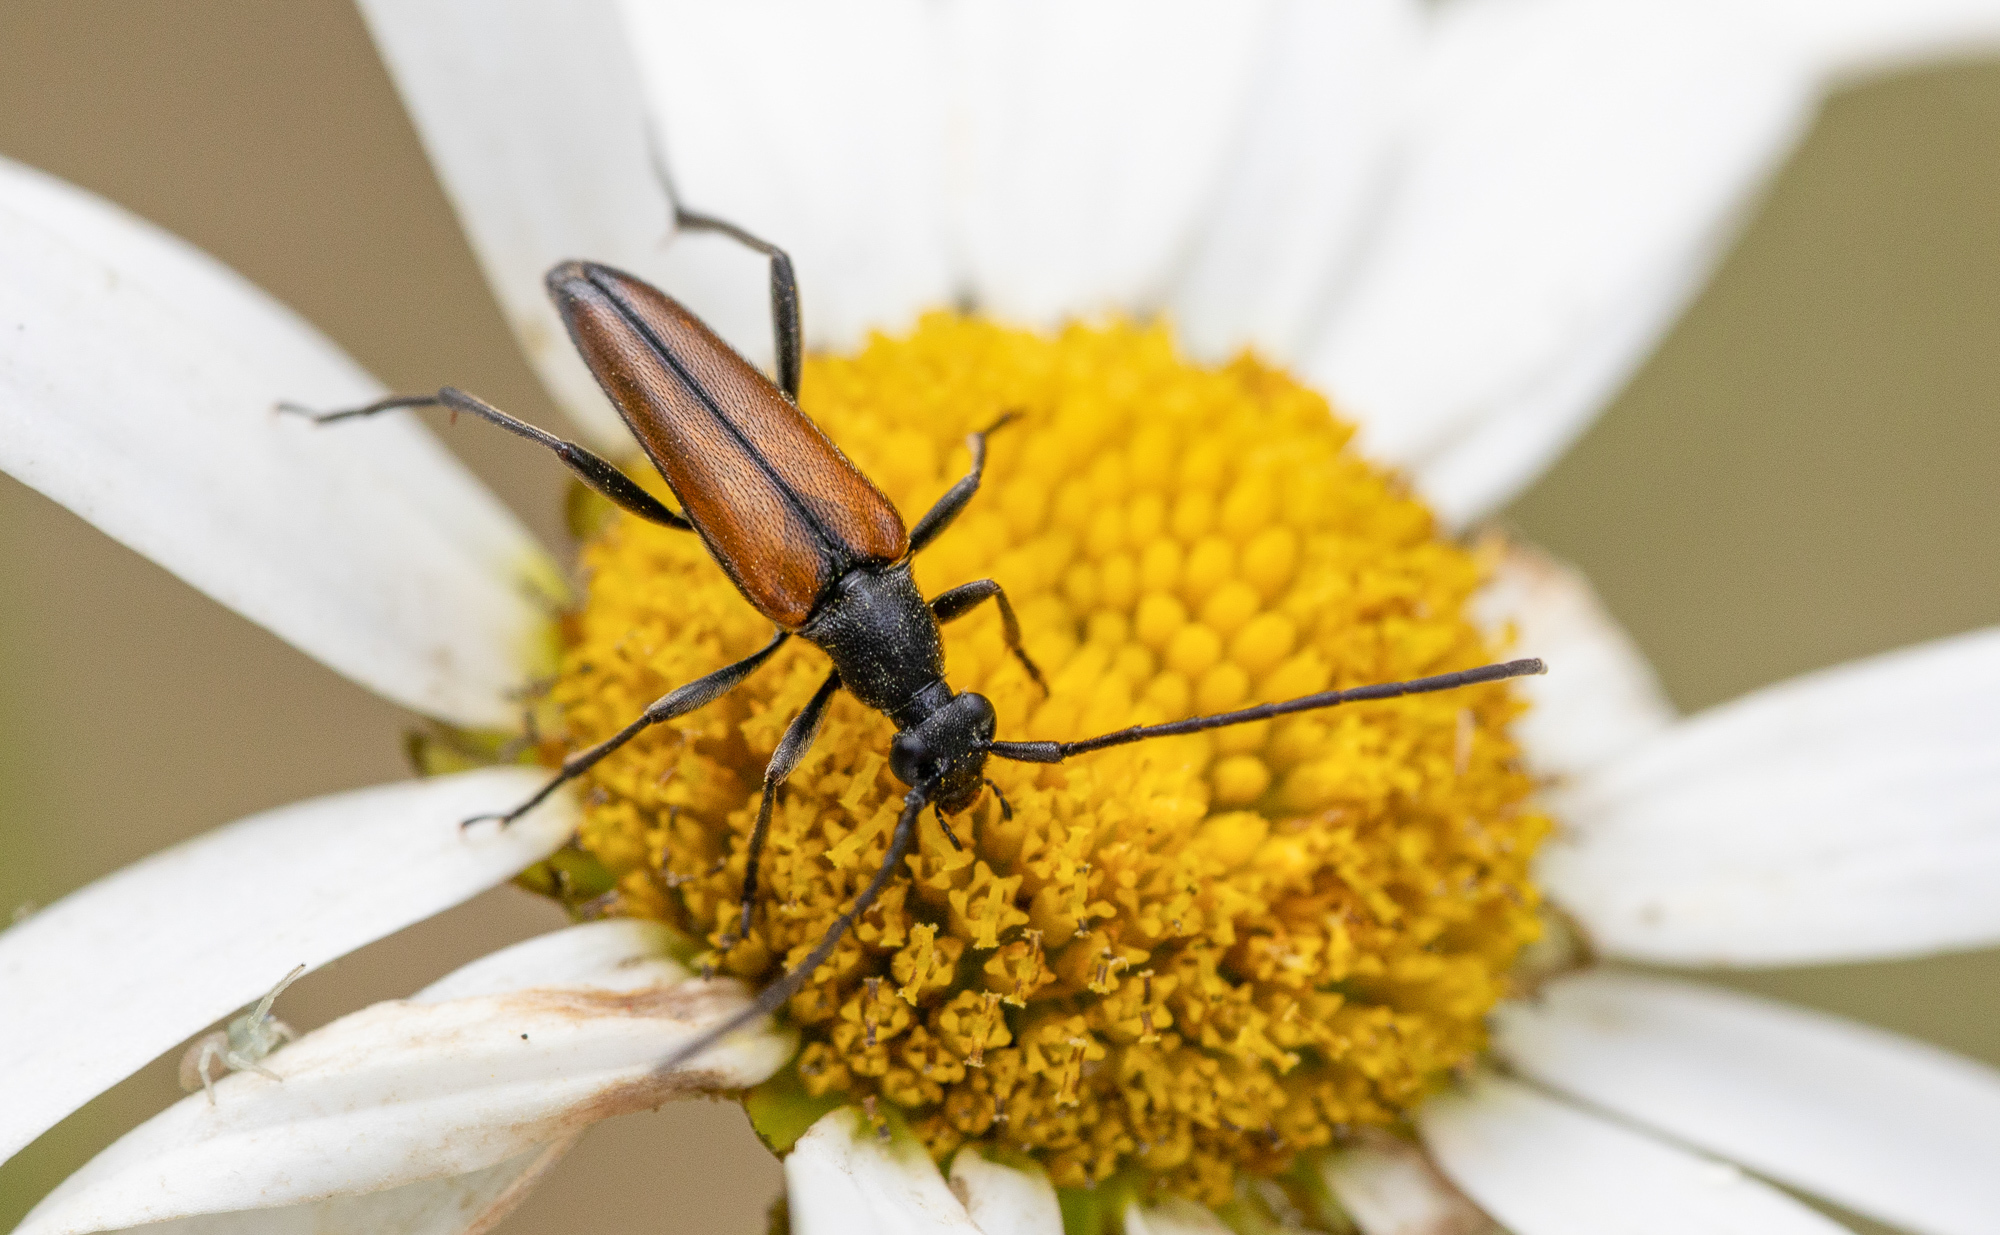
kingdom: Animalia
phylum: Arthropoda
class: Insecta
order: Coleoptera
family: Cerambycidae
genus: Stenurella
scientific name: Stenurella melanura
